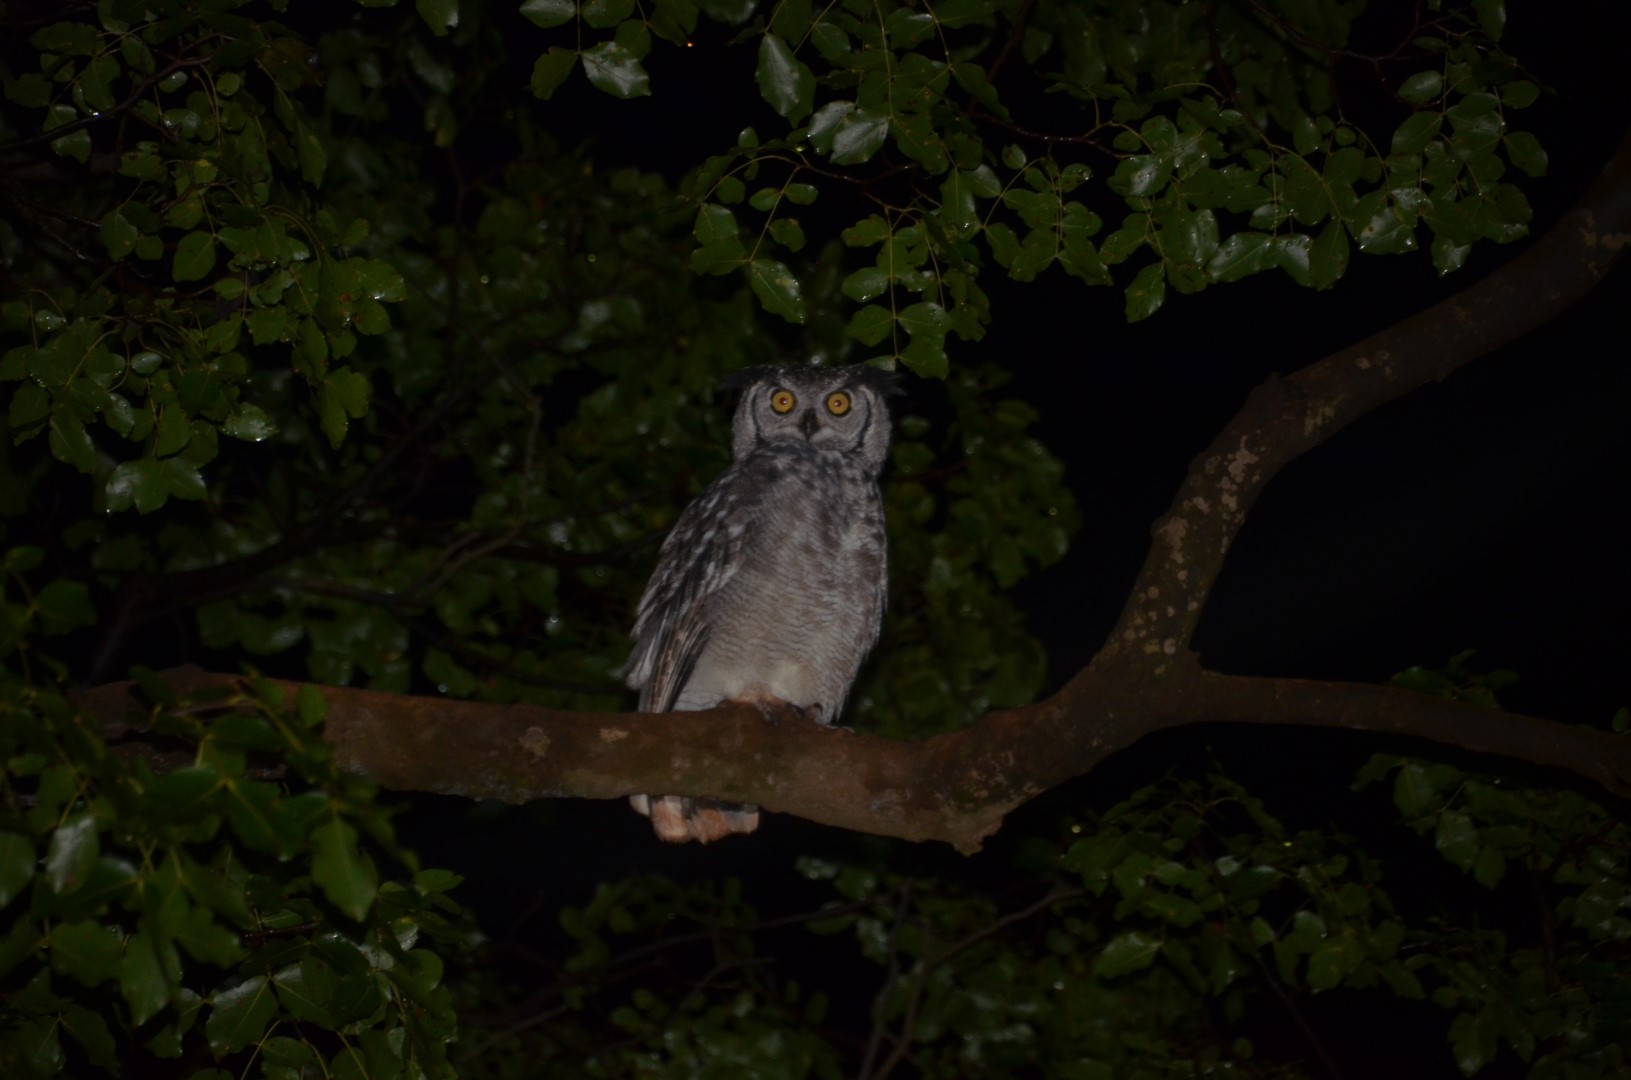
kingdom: Animalia
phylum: Chordata
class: Aves
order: Strigiformes
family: Strigidae
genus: Bubo
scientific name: Bubo africanus
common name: Spotted eagle-owl
